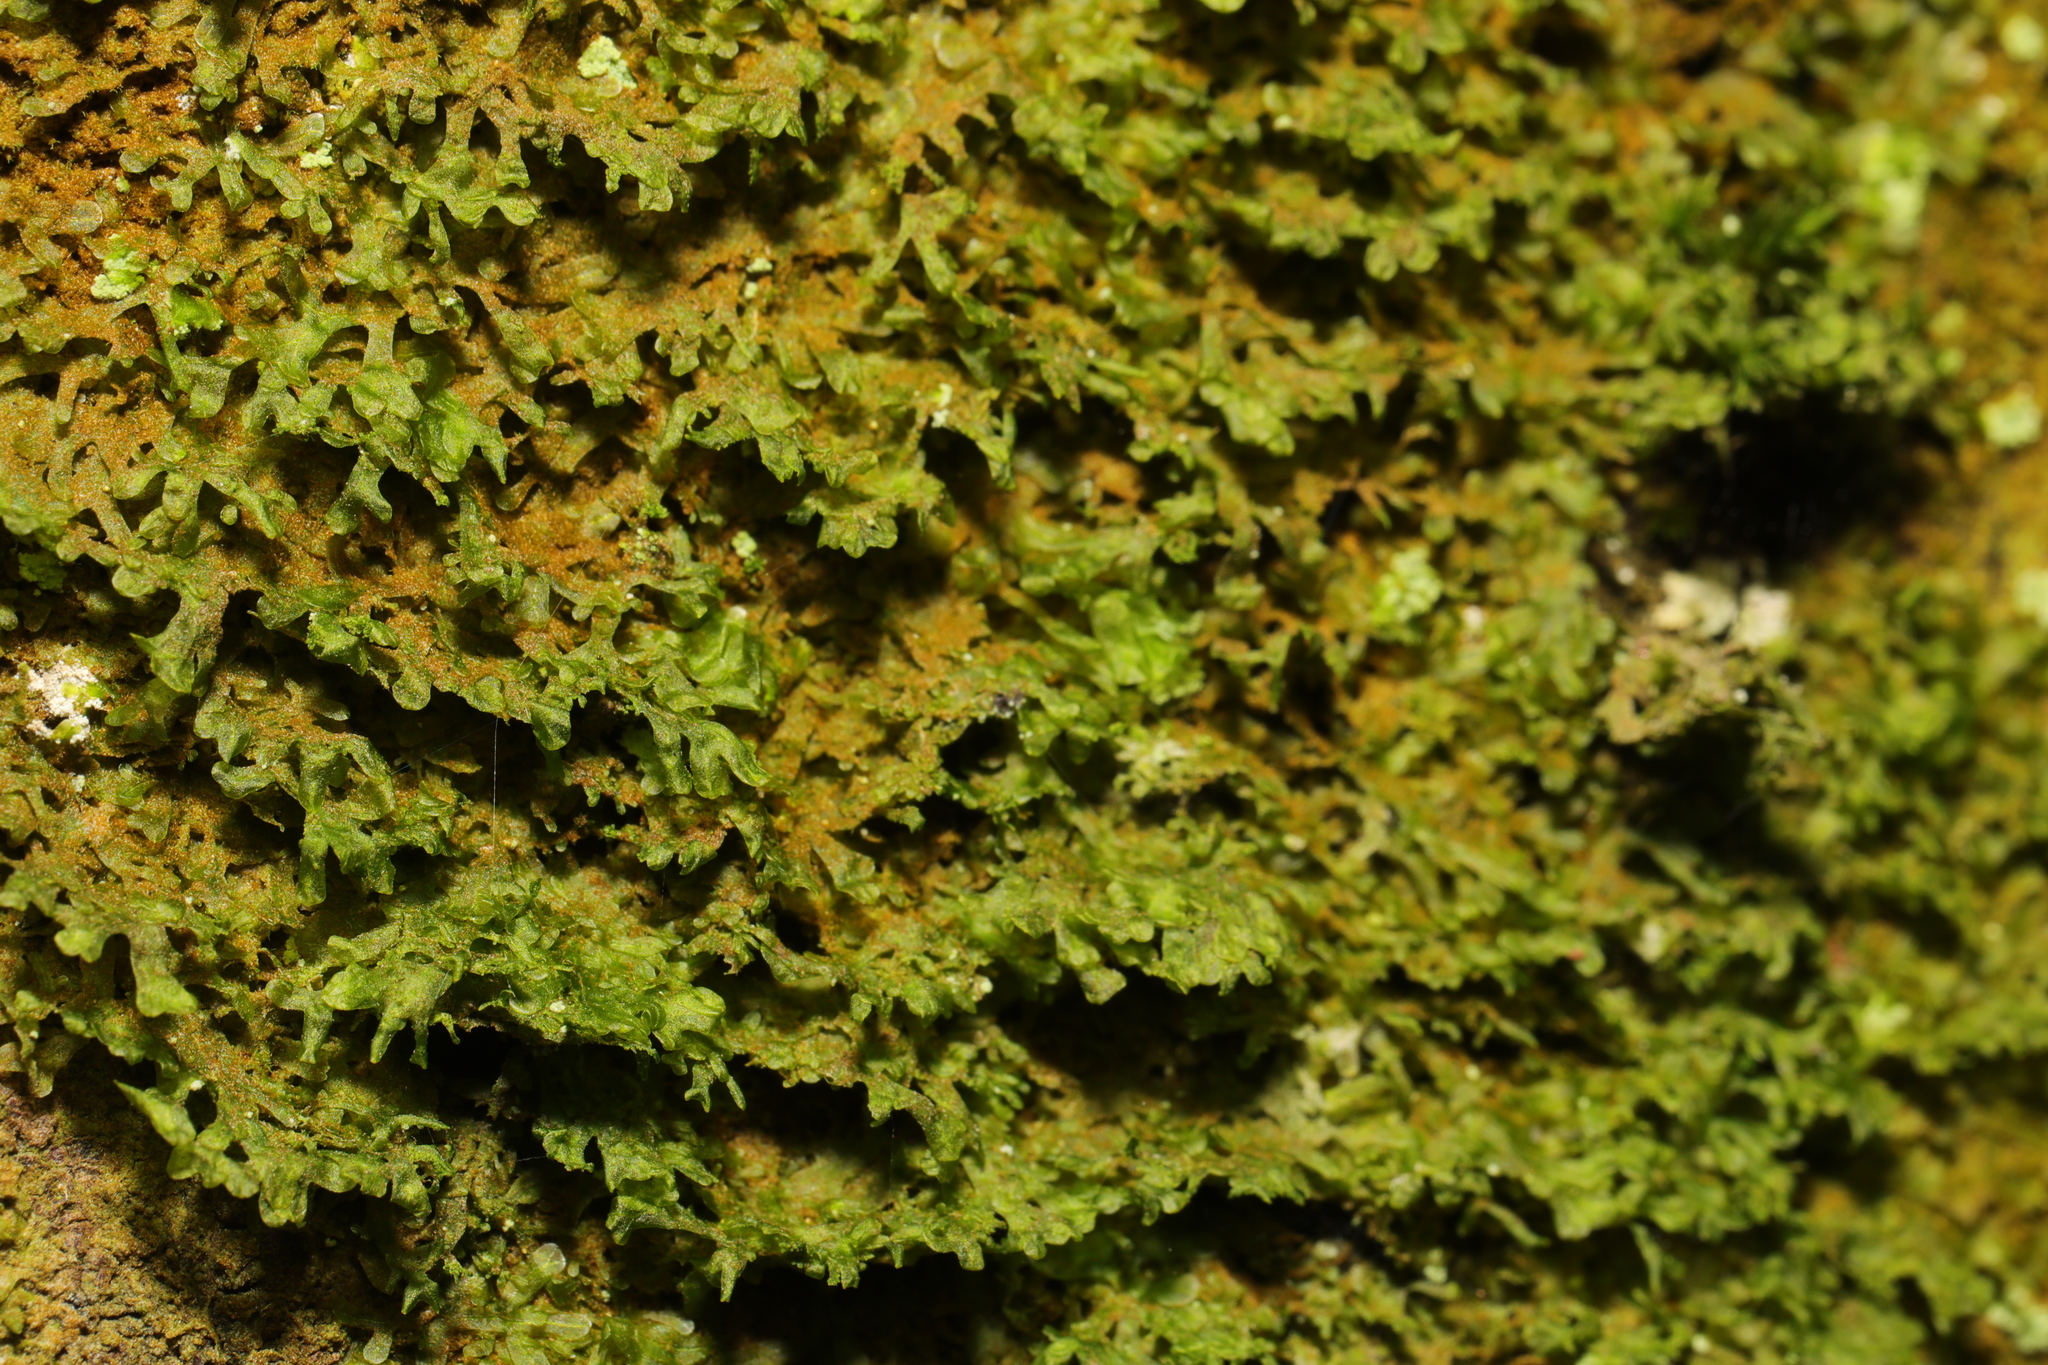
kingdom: Plantae
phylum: Marchantiophyta
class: Jungermanniopsida
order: Metzgeriales
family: Metzgeriaceae
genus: Metzgeria
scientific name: Metzgeria furcata
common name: Forked veilwort
